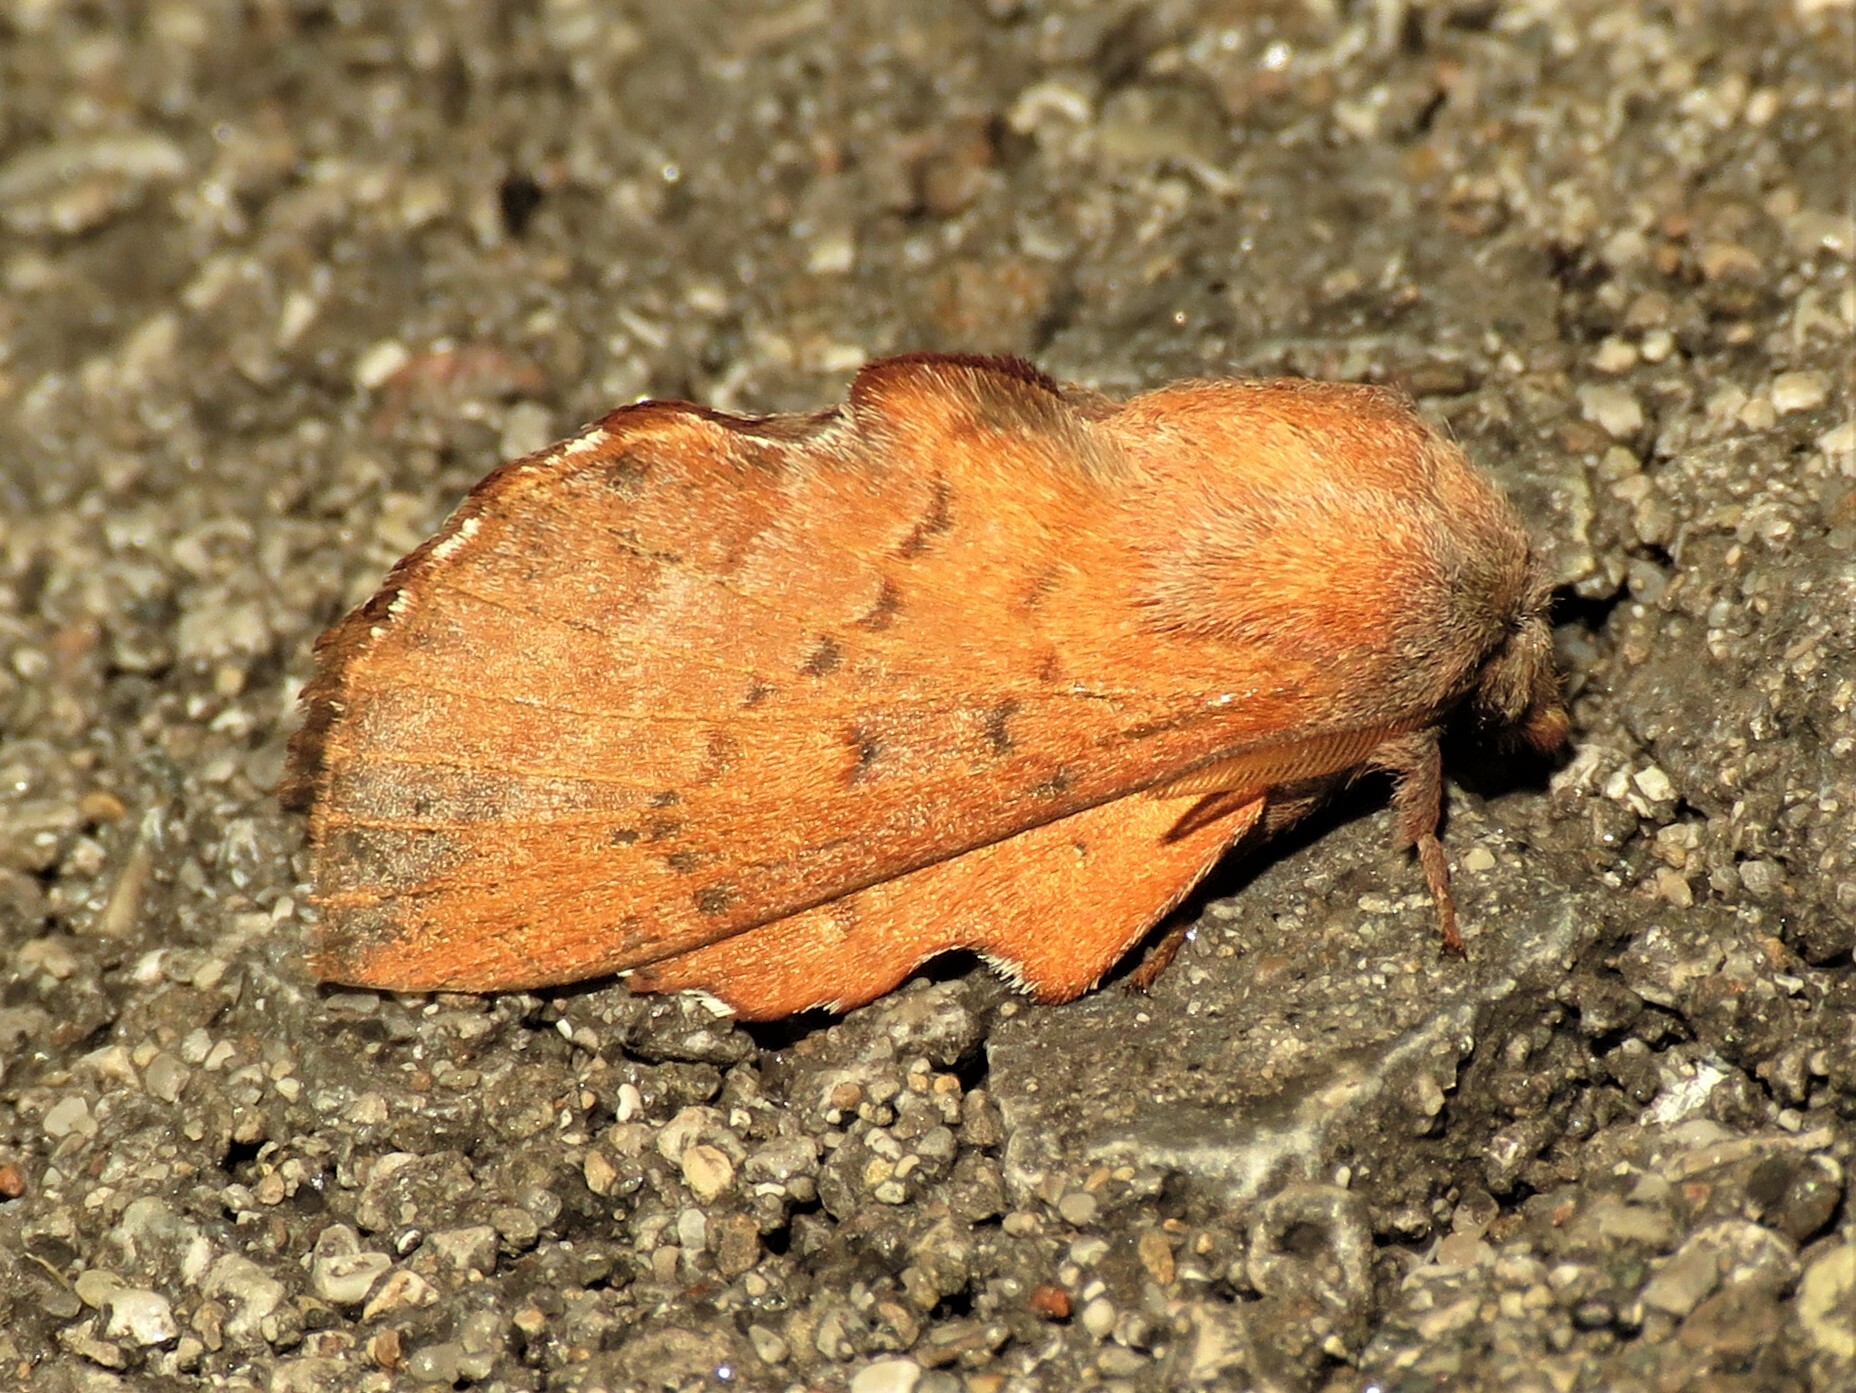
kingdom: Animalia
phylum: Arthropoda
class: Insecta
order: Lepidoptera
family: Lasiocampidae
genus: Phyllodesma
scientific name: Phyllodesma americana
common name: American lappet moth
